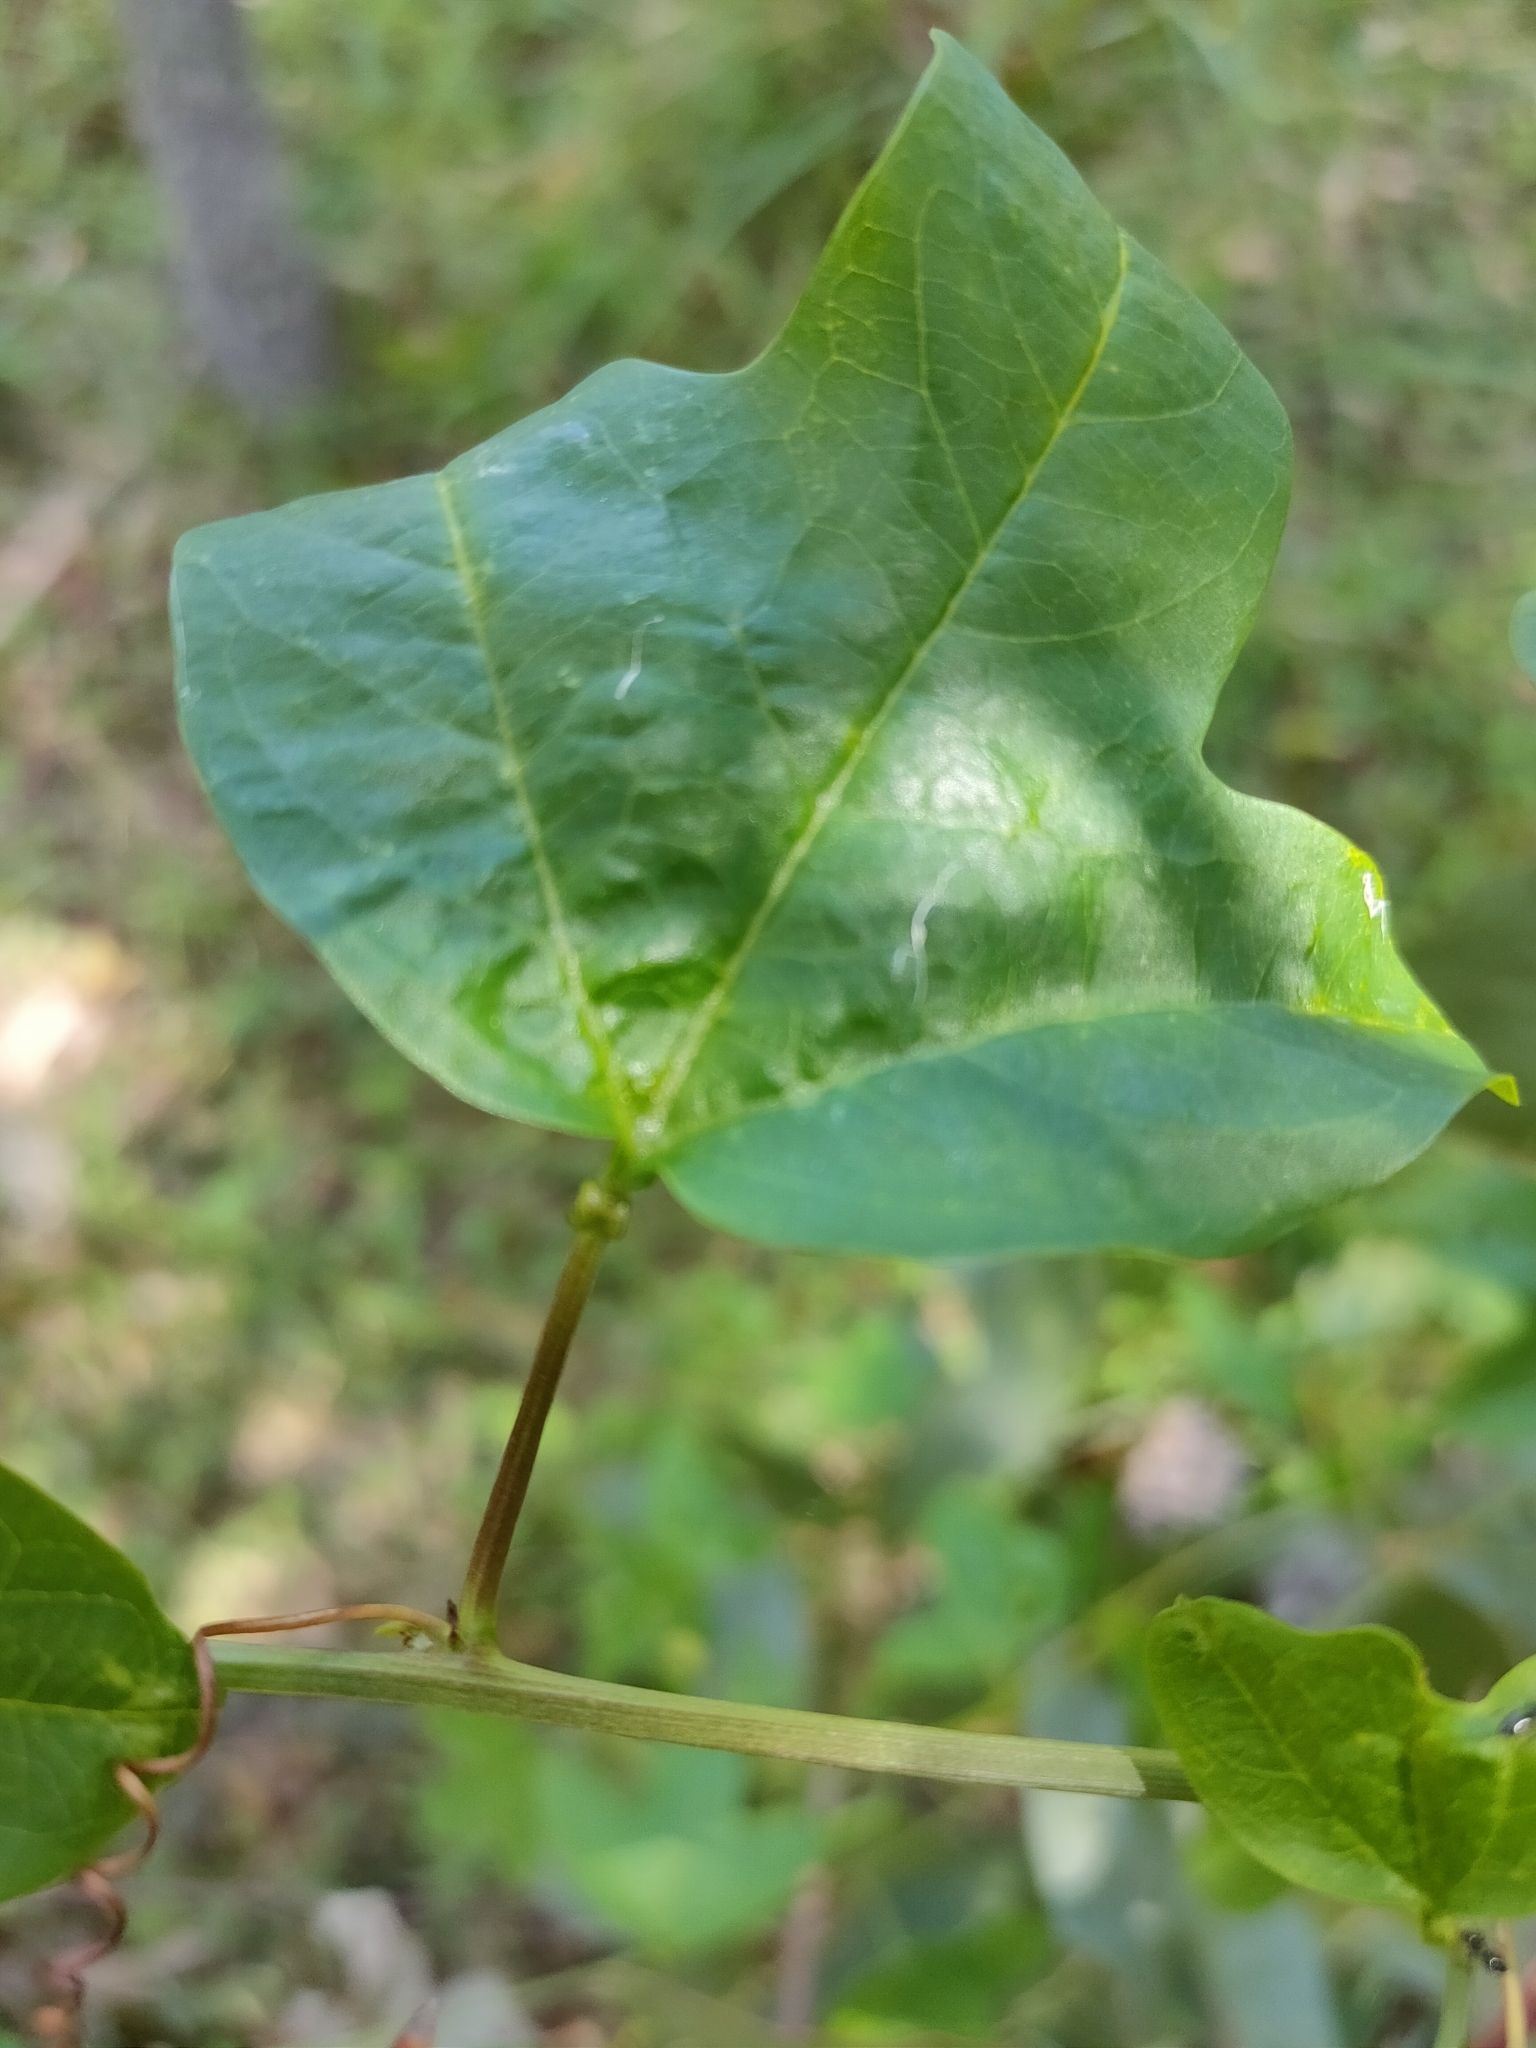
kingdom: Plantae
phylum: Tracheophyta
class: Magnoliopsida
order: Malpighiales
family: Passifloraceae
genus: Passiflora
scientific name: Passiflora aurantia
